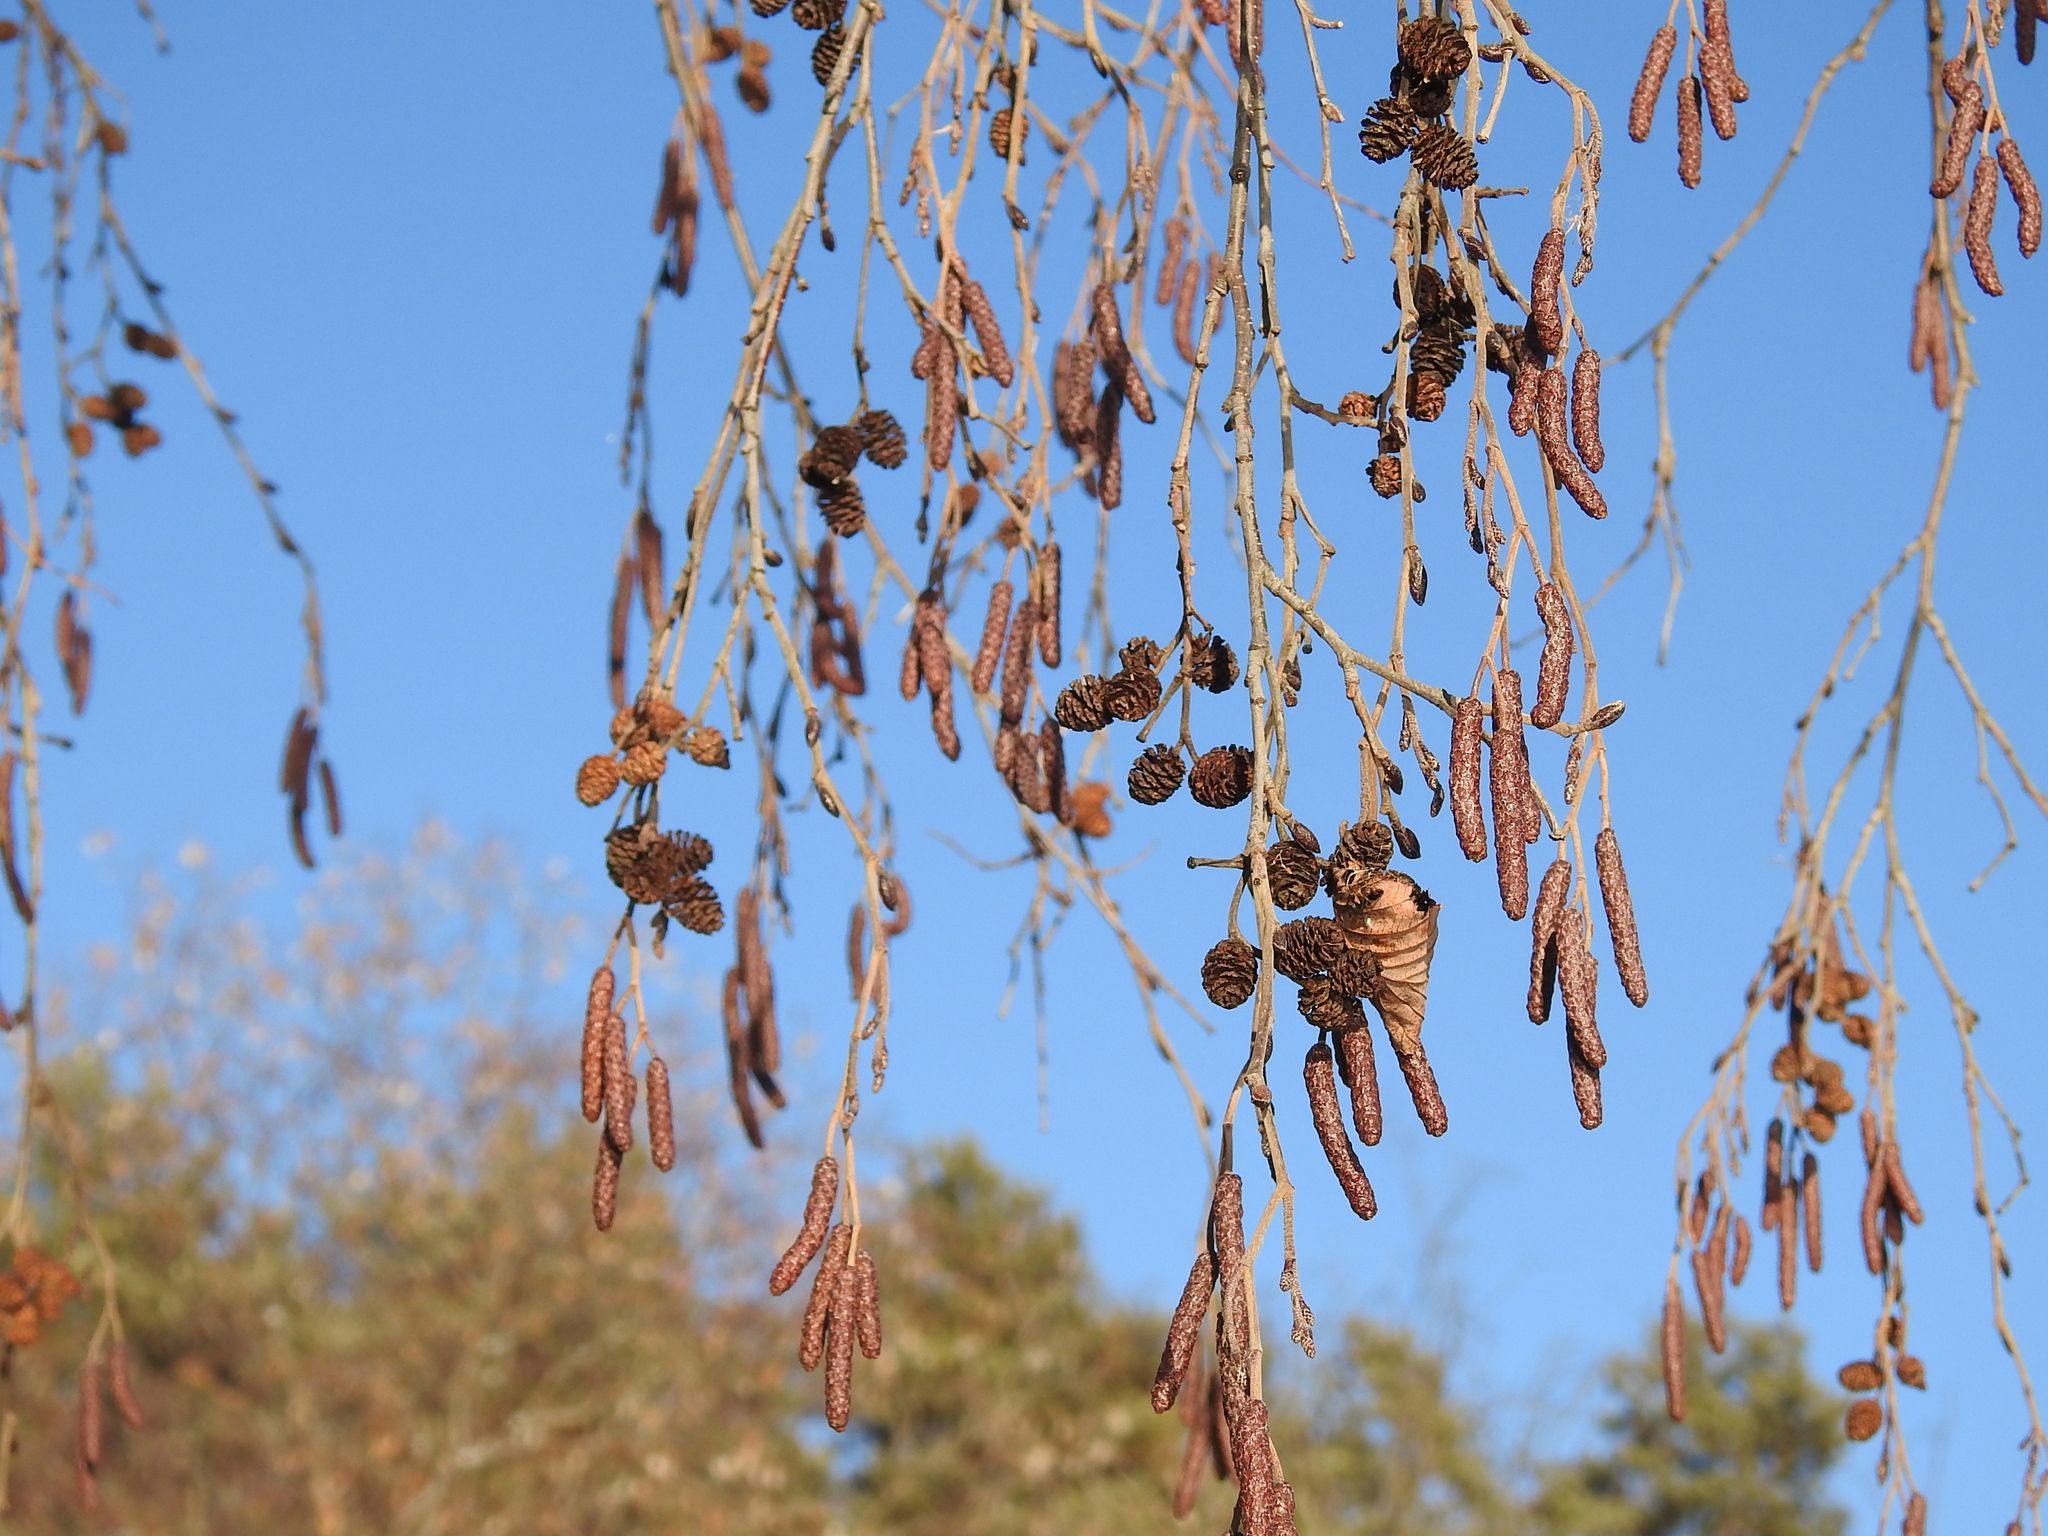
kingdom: Plantae
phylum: Tracheophyta
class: Magnoliopsida
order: Fagales
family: Betulaceae
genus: Alnus
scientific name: Alnus glutinosa
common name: Black alder
